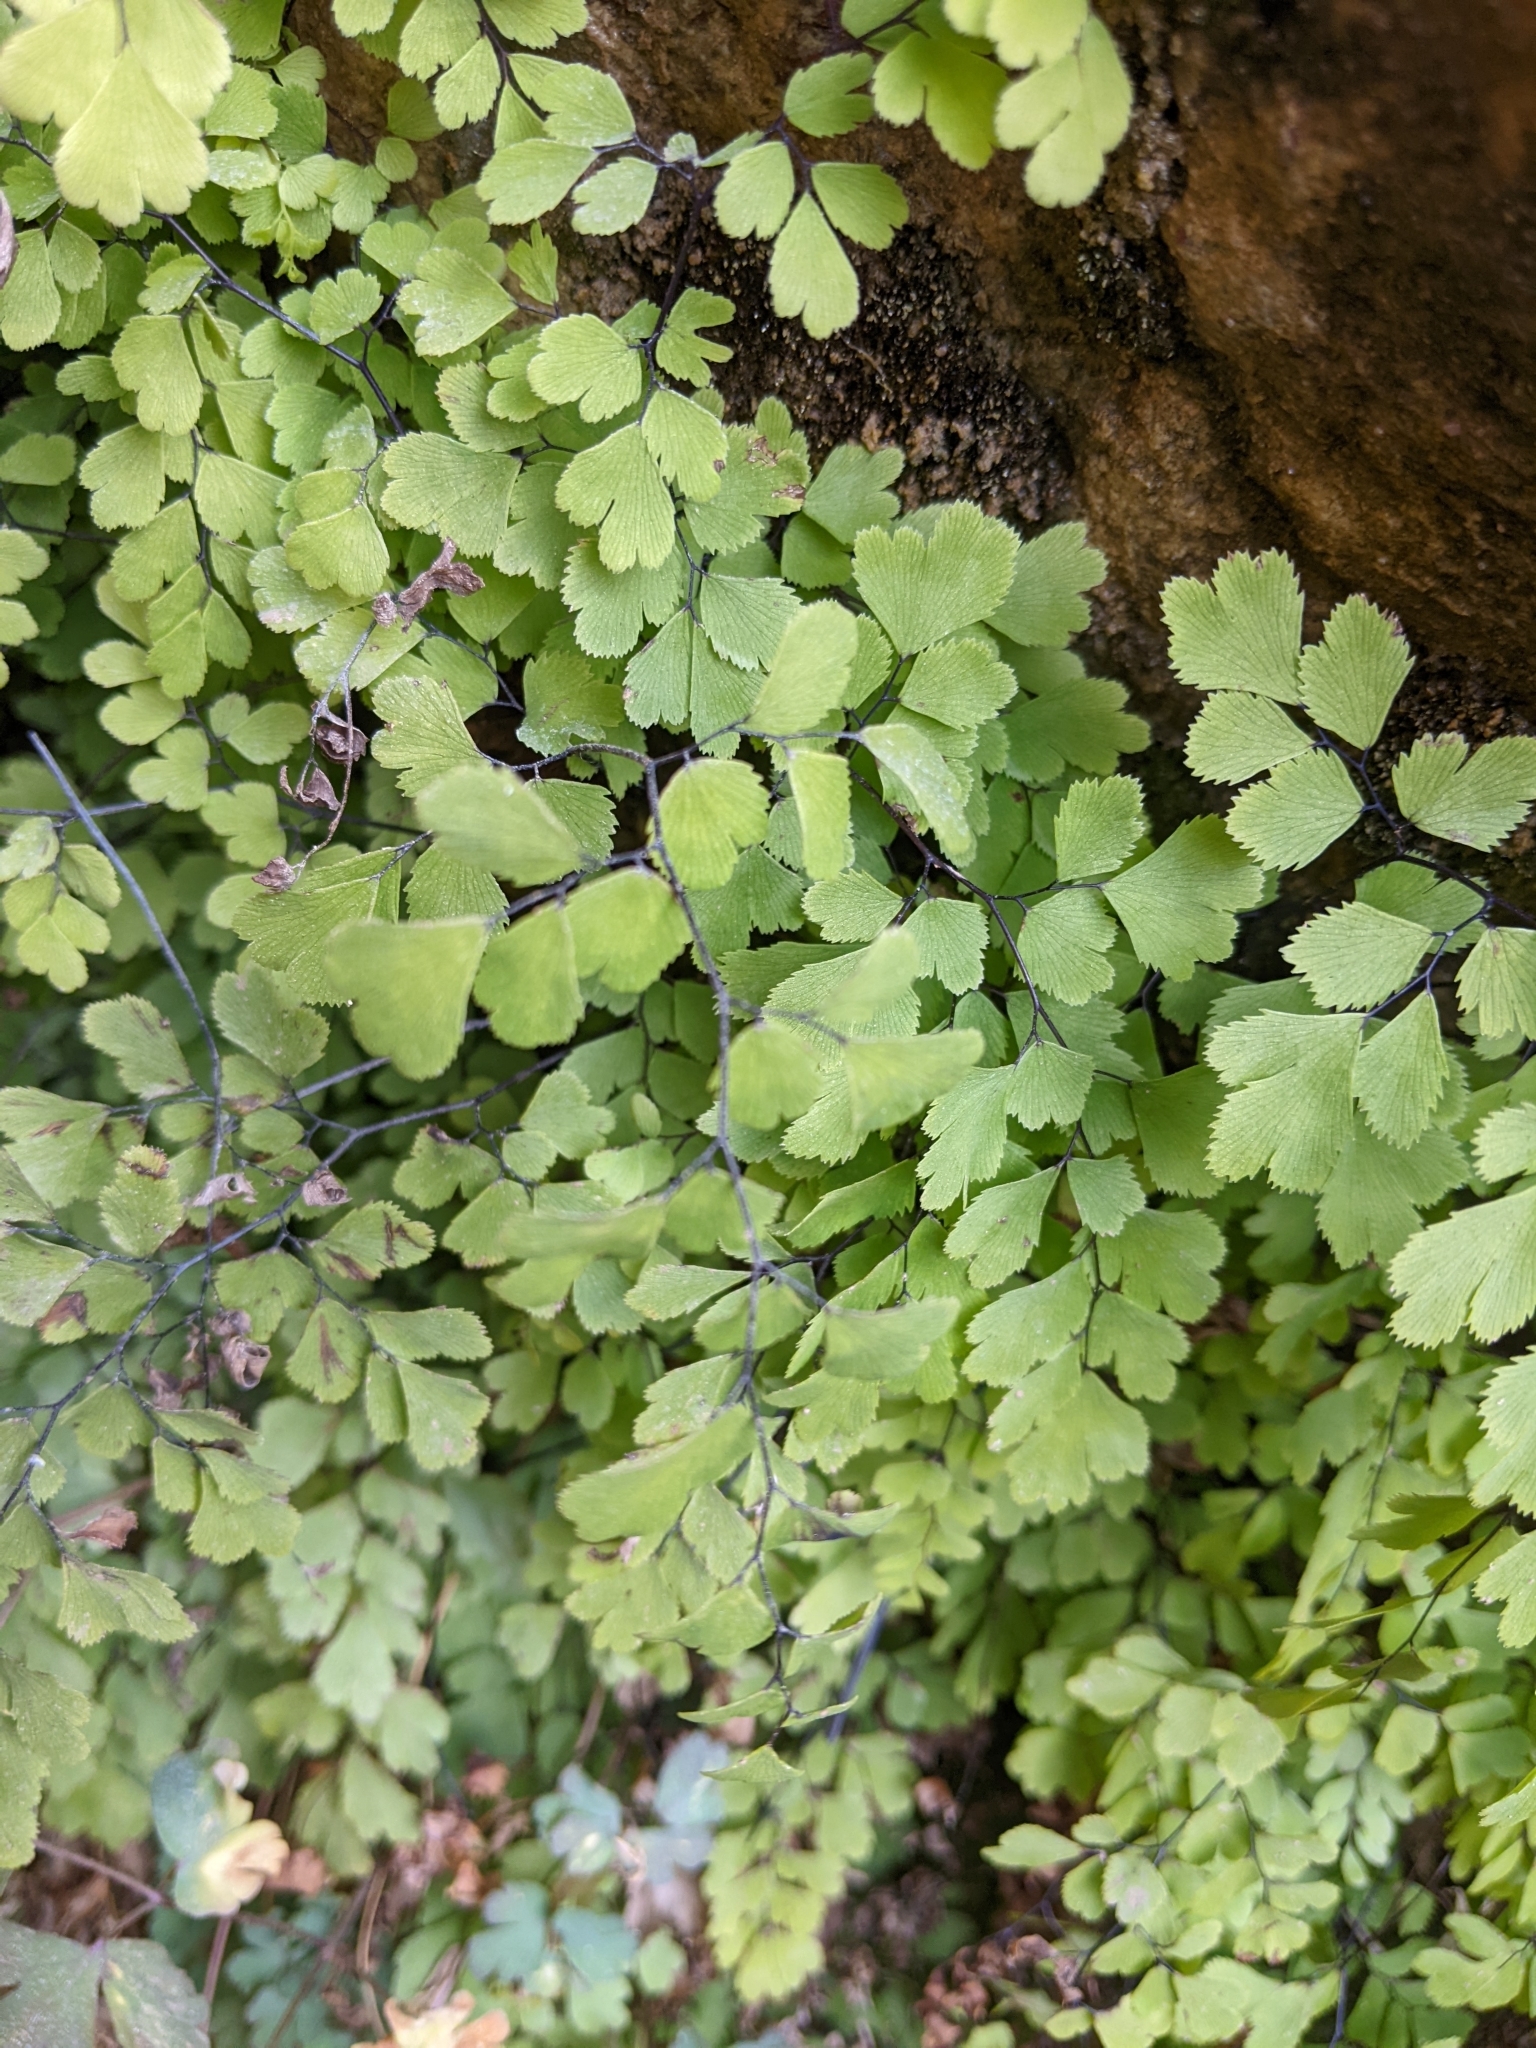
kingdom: Plantae
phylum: Tracheophyta
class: Polypodiopsida
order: Polypodiales
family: Pteridaceae
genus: Adiantum
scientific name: Adiantum capillus-veneris
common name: Maidenhair fern
